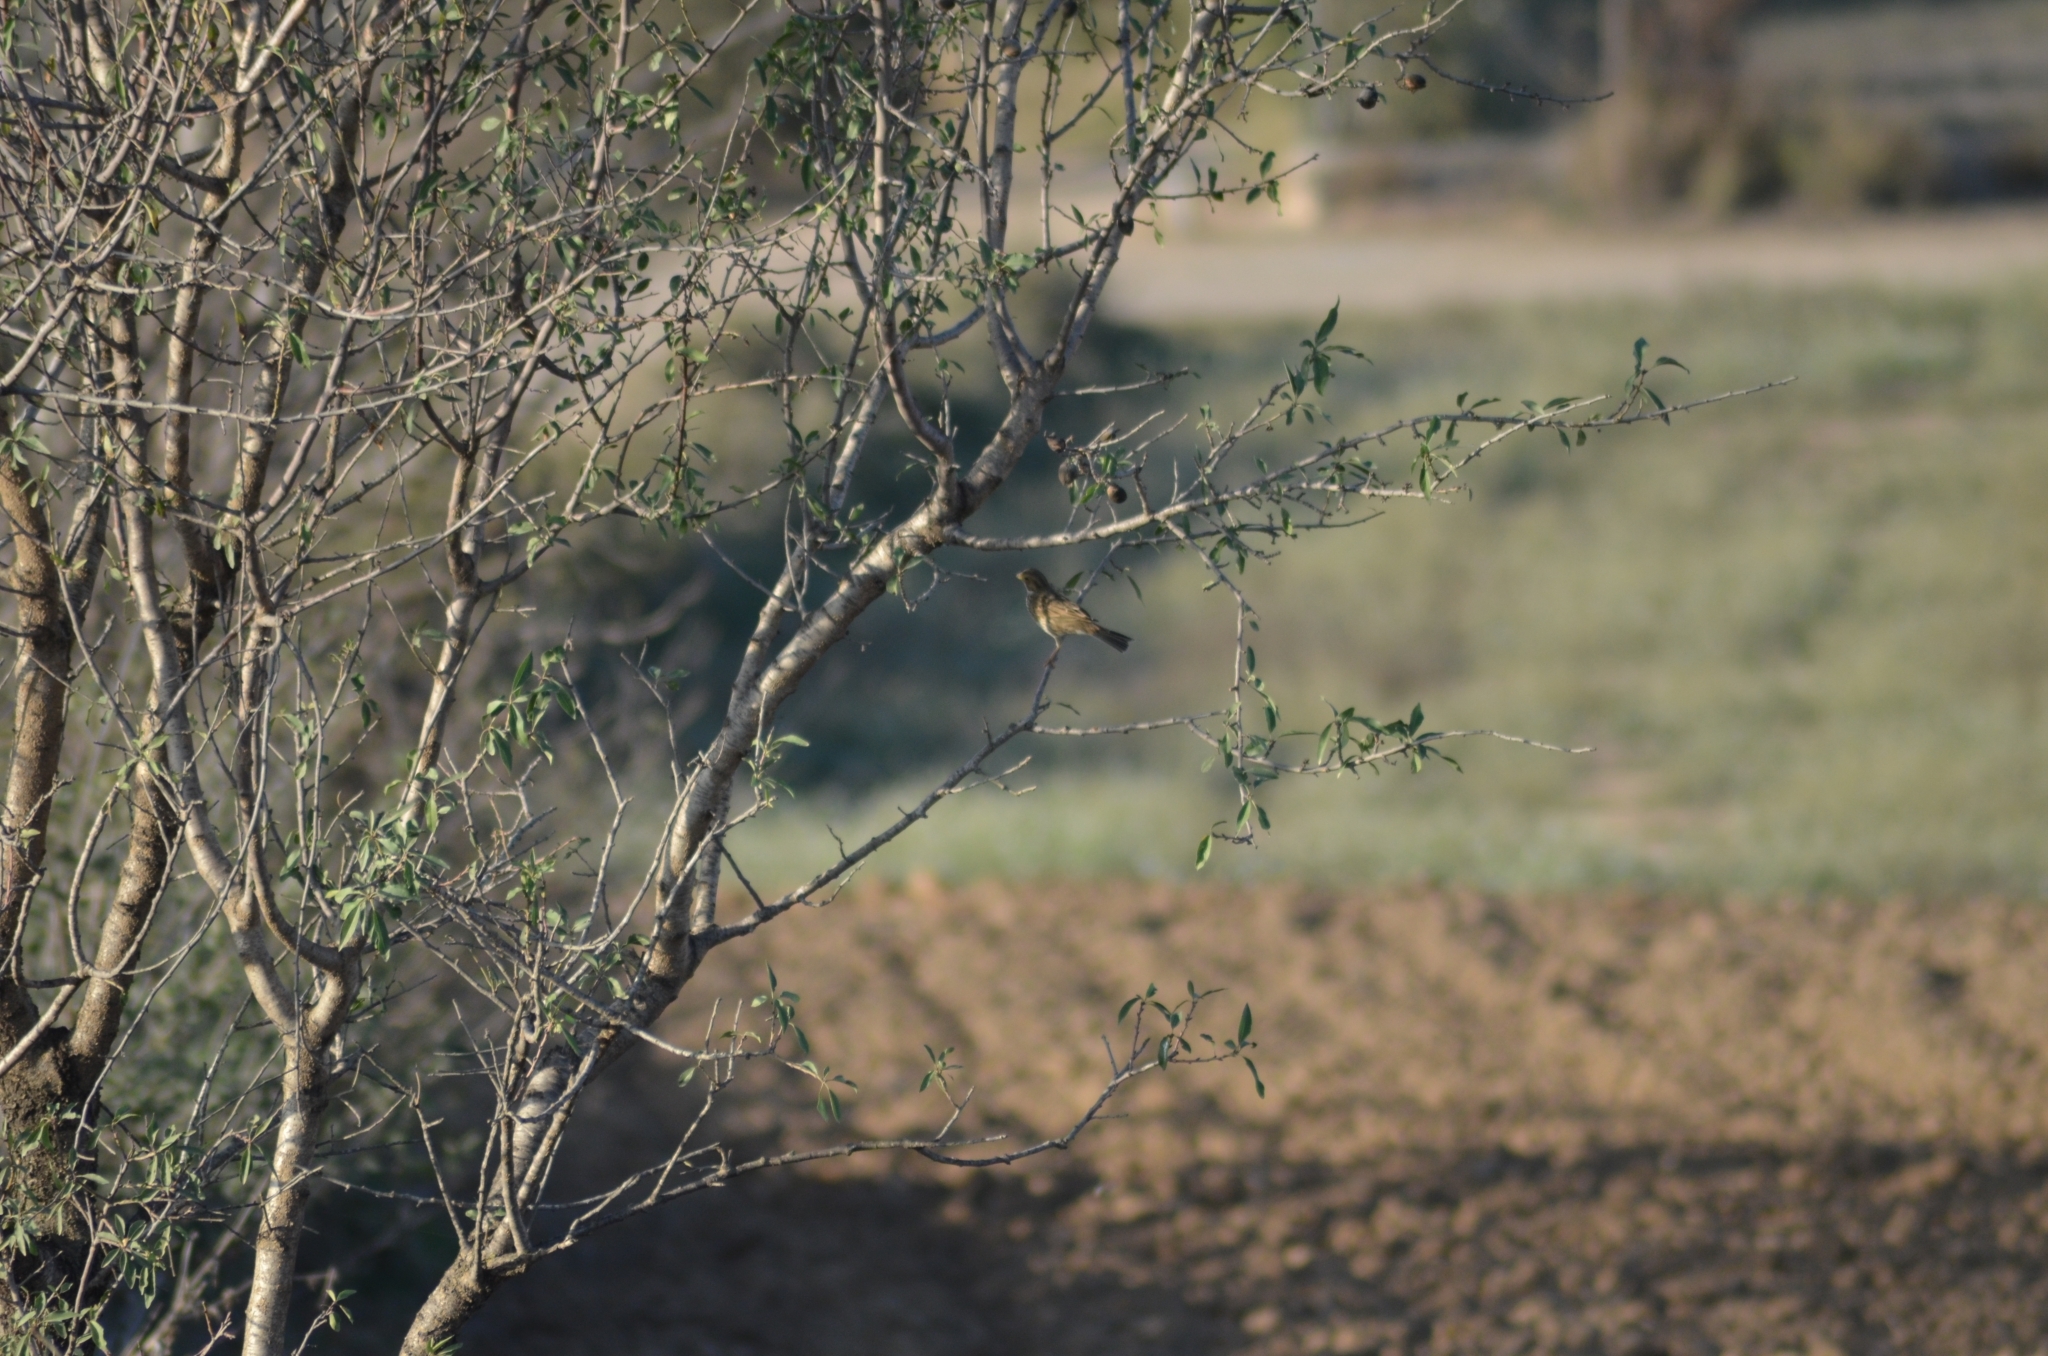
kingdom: Animalia
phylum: Chordata
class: Aves
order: Passeriformes
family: Emberizidae
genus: Emberiza
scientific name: Emberiza calandra
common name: Corn bunting
